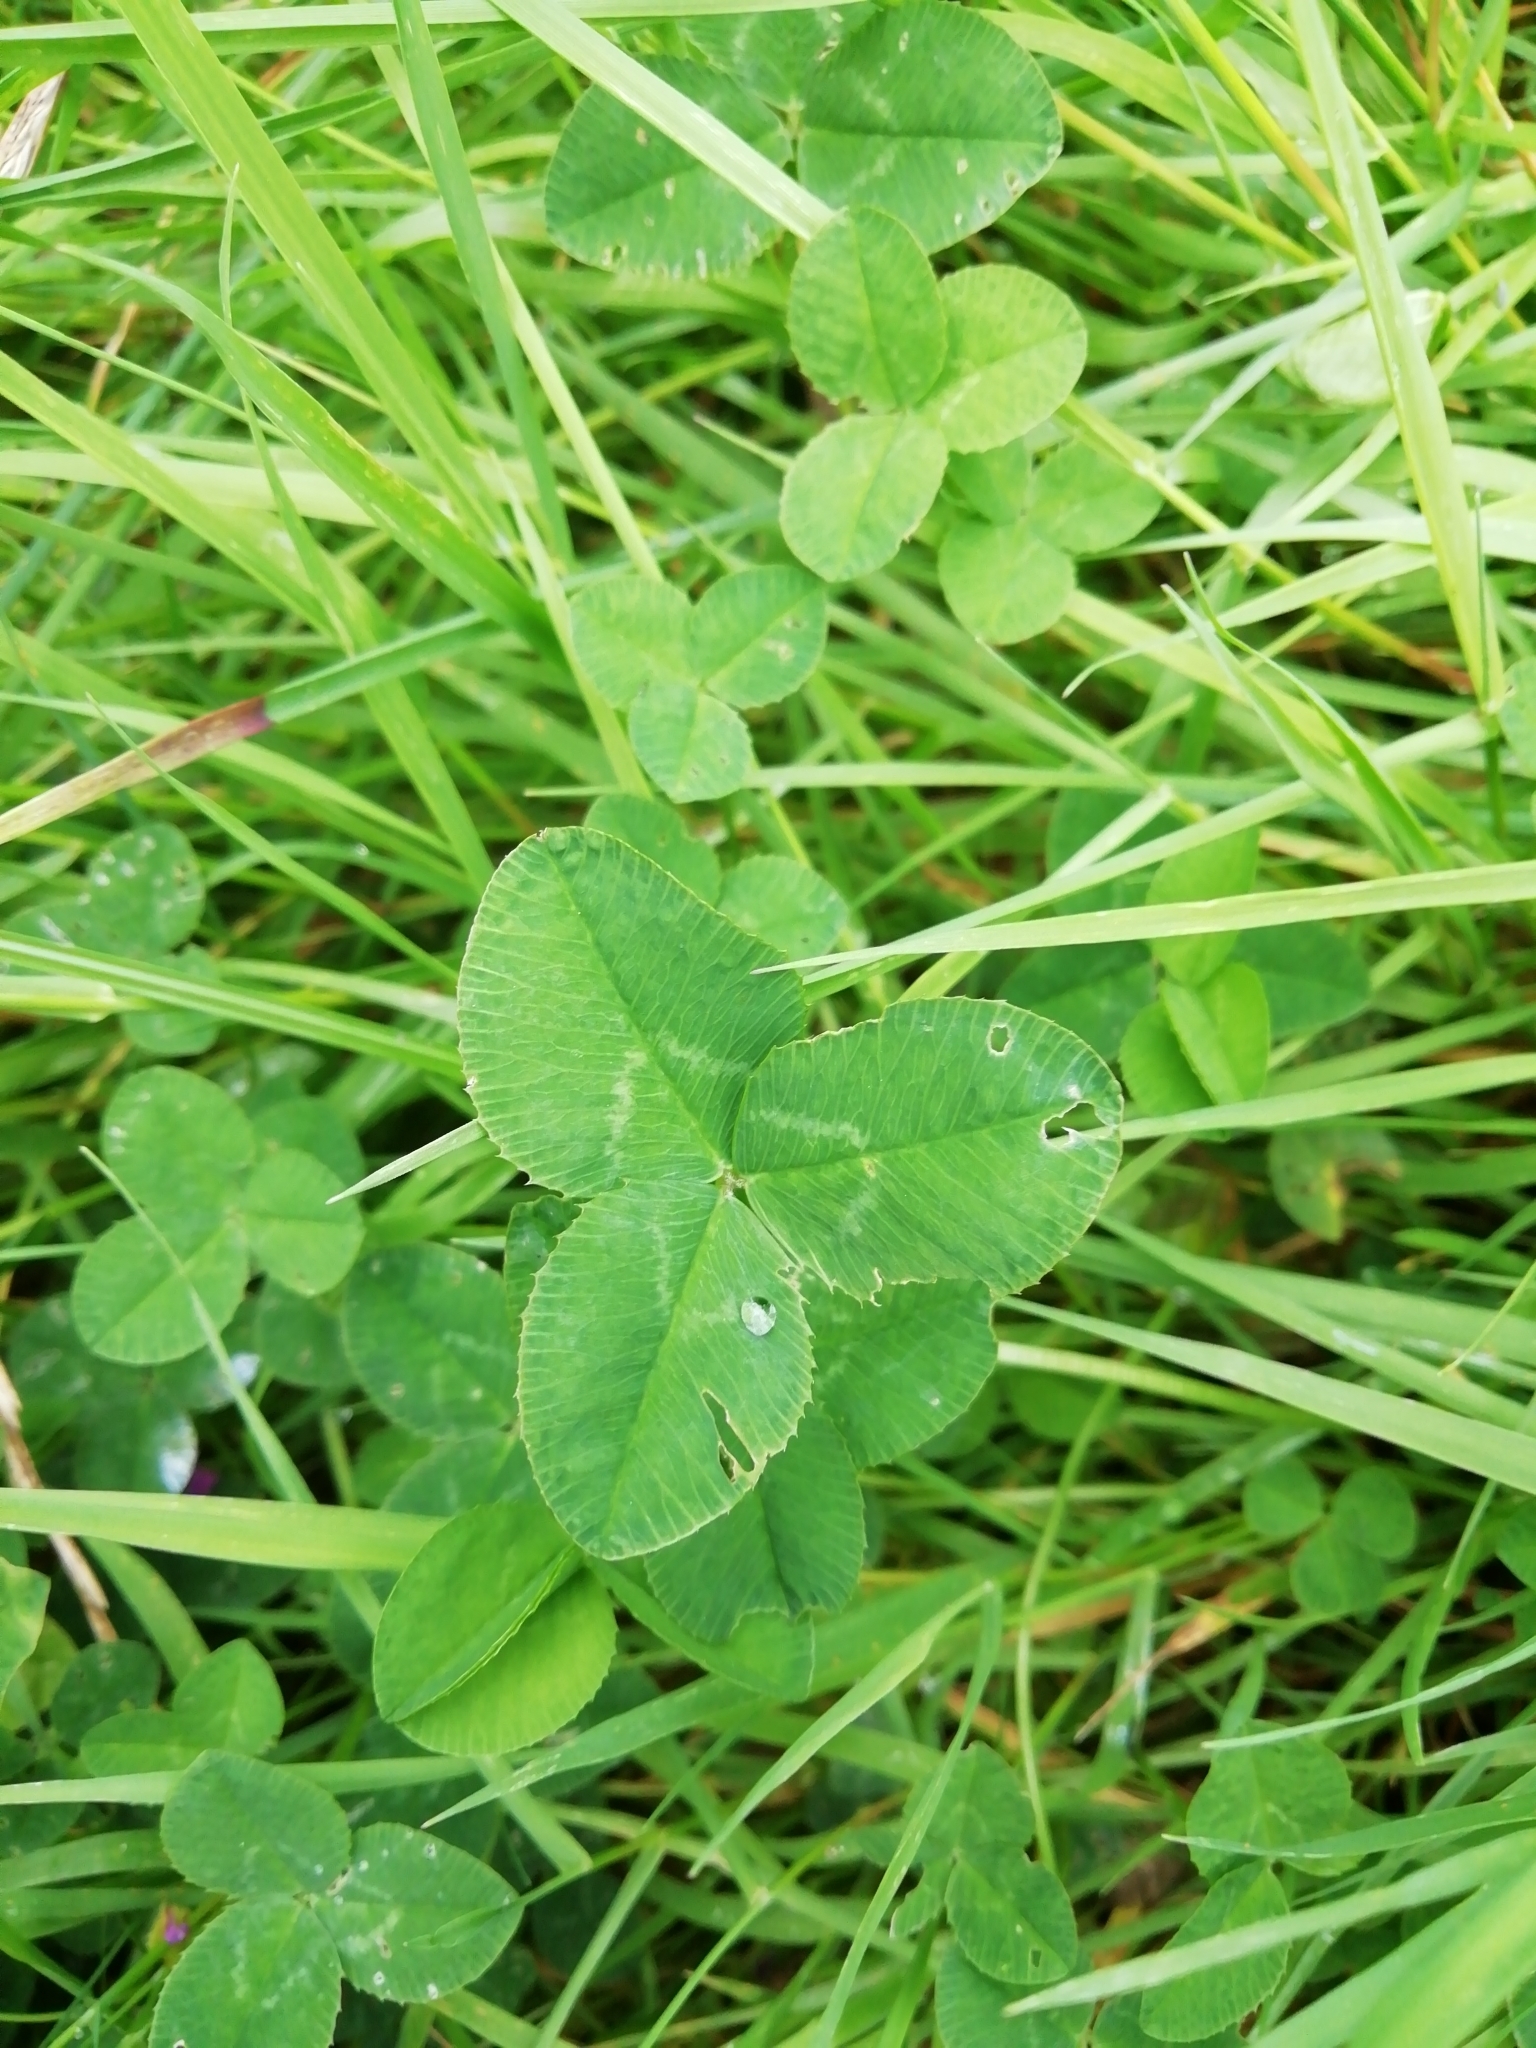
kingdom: Plantae
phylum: Tracheophyta
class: Magnoliopsida
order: Fabales
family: Fabaceae
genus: Trifolium
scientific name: Trifolium repens
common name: White clover
